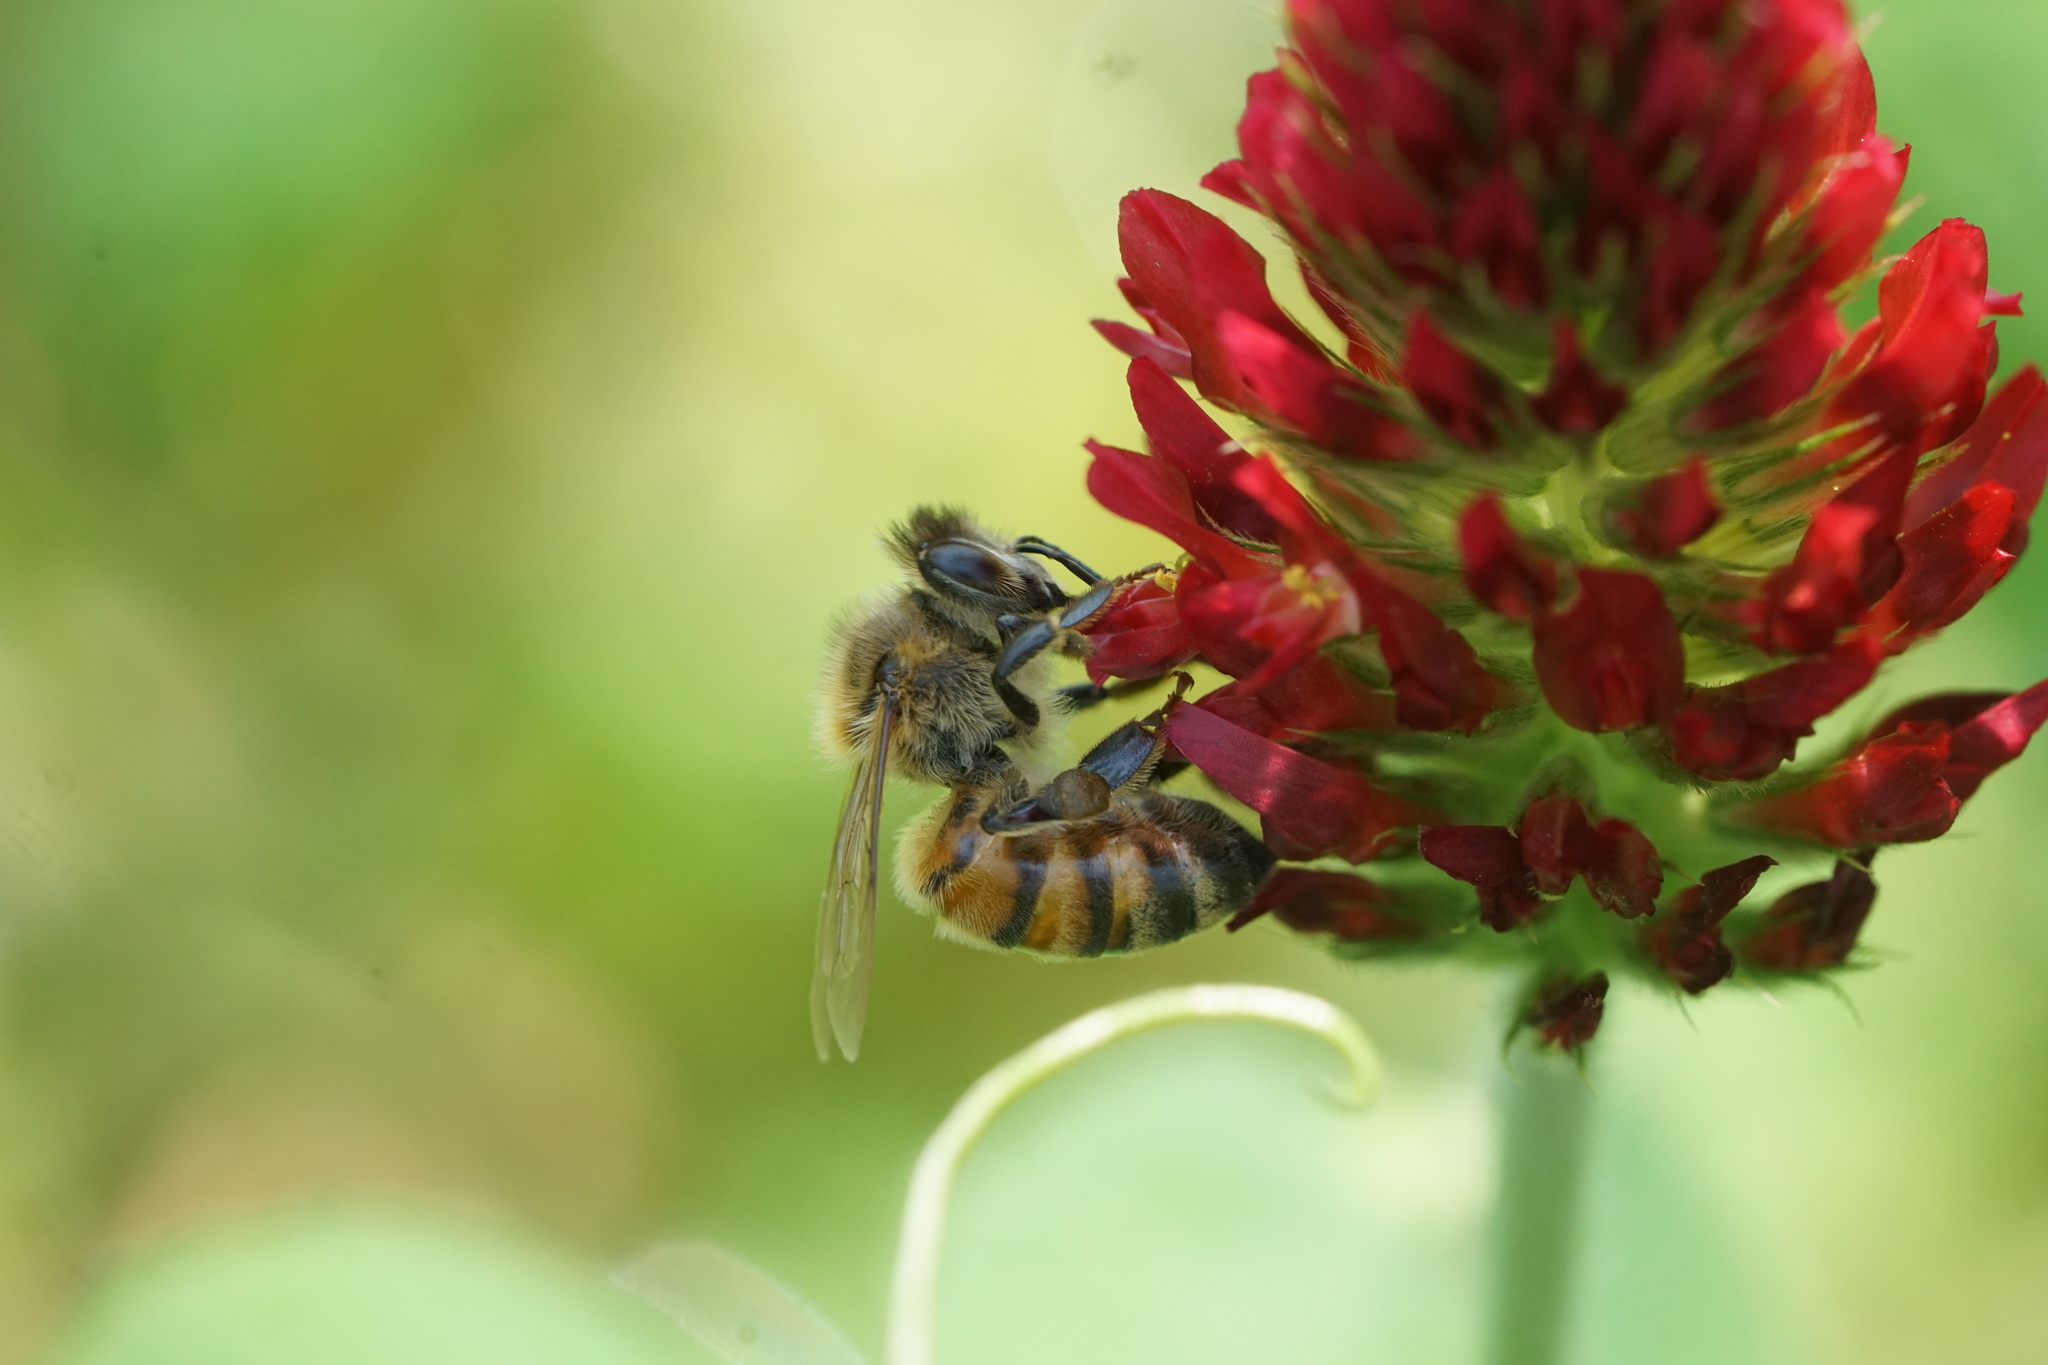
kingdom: Animalia
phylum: Arthropoda
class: Insecta
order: Hymenoptera
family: Apidae
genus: Apis
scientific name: Apis mellifera
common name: Honey bee
